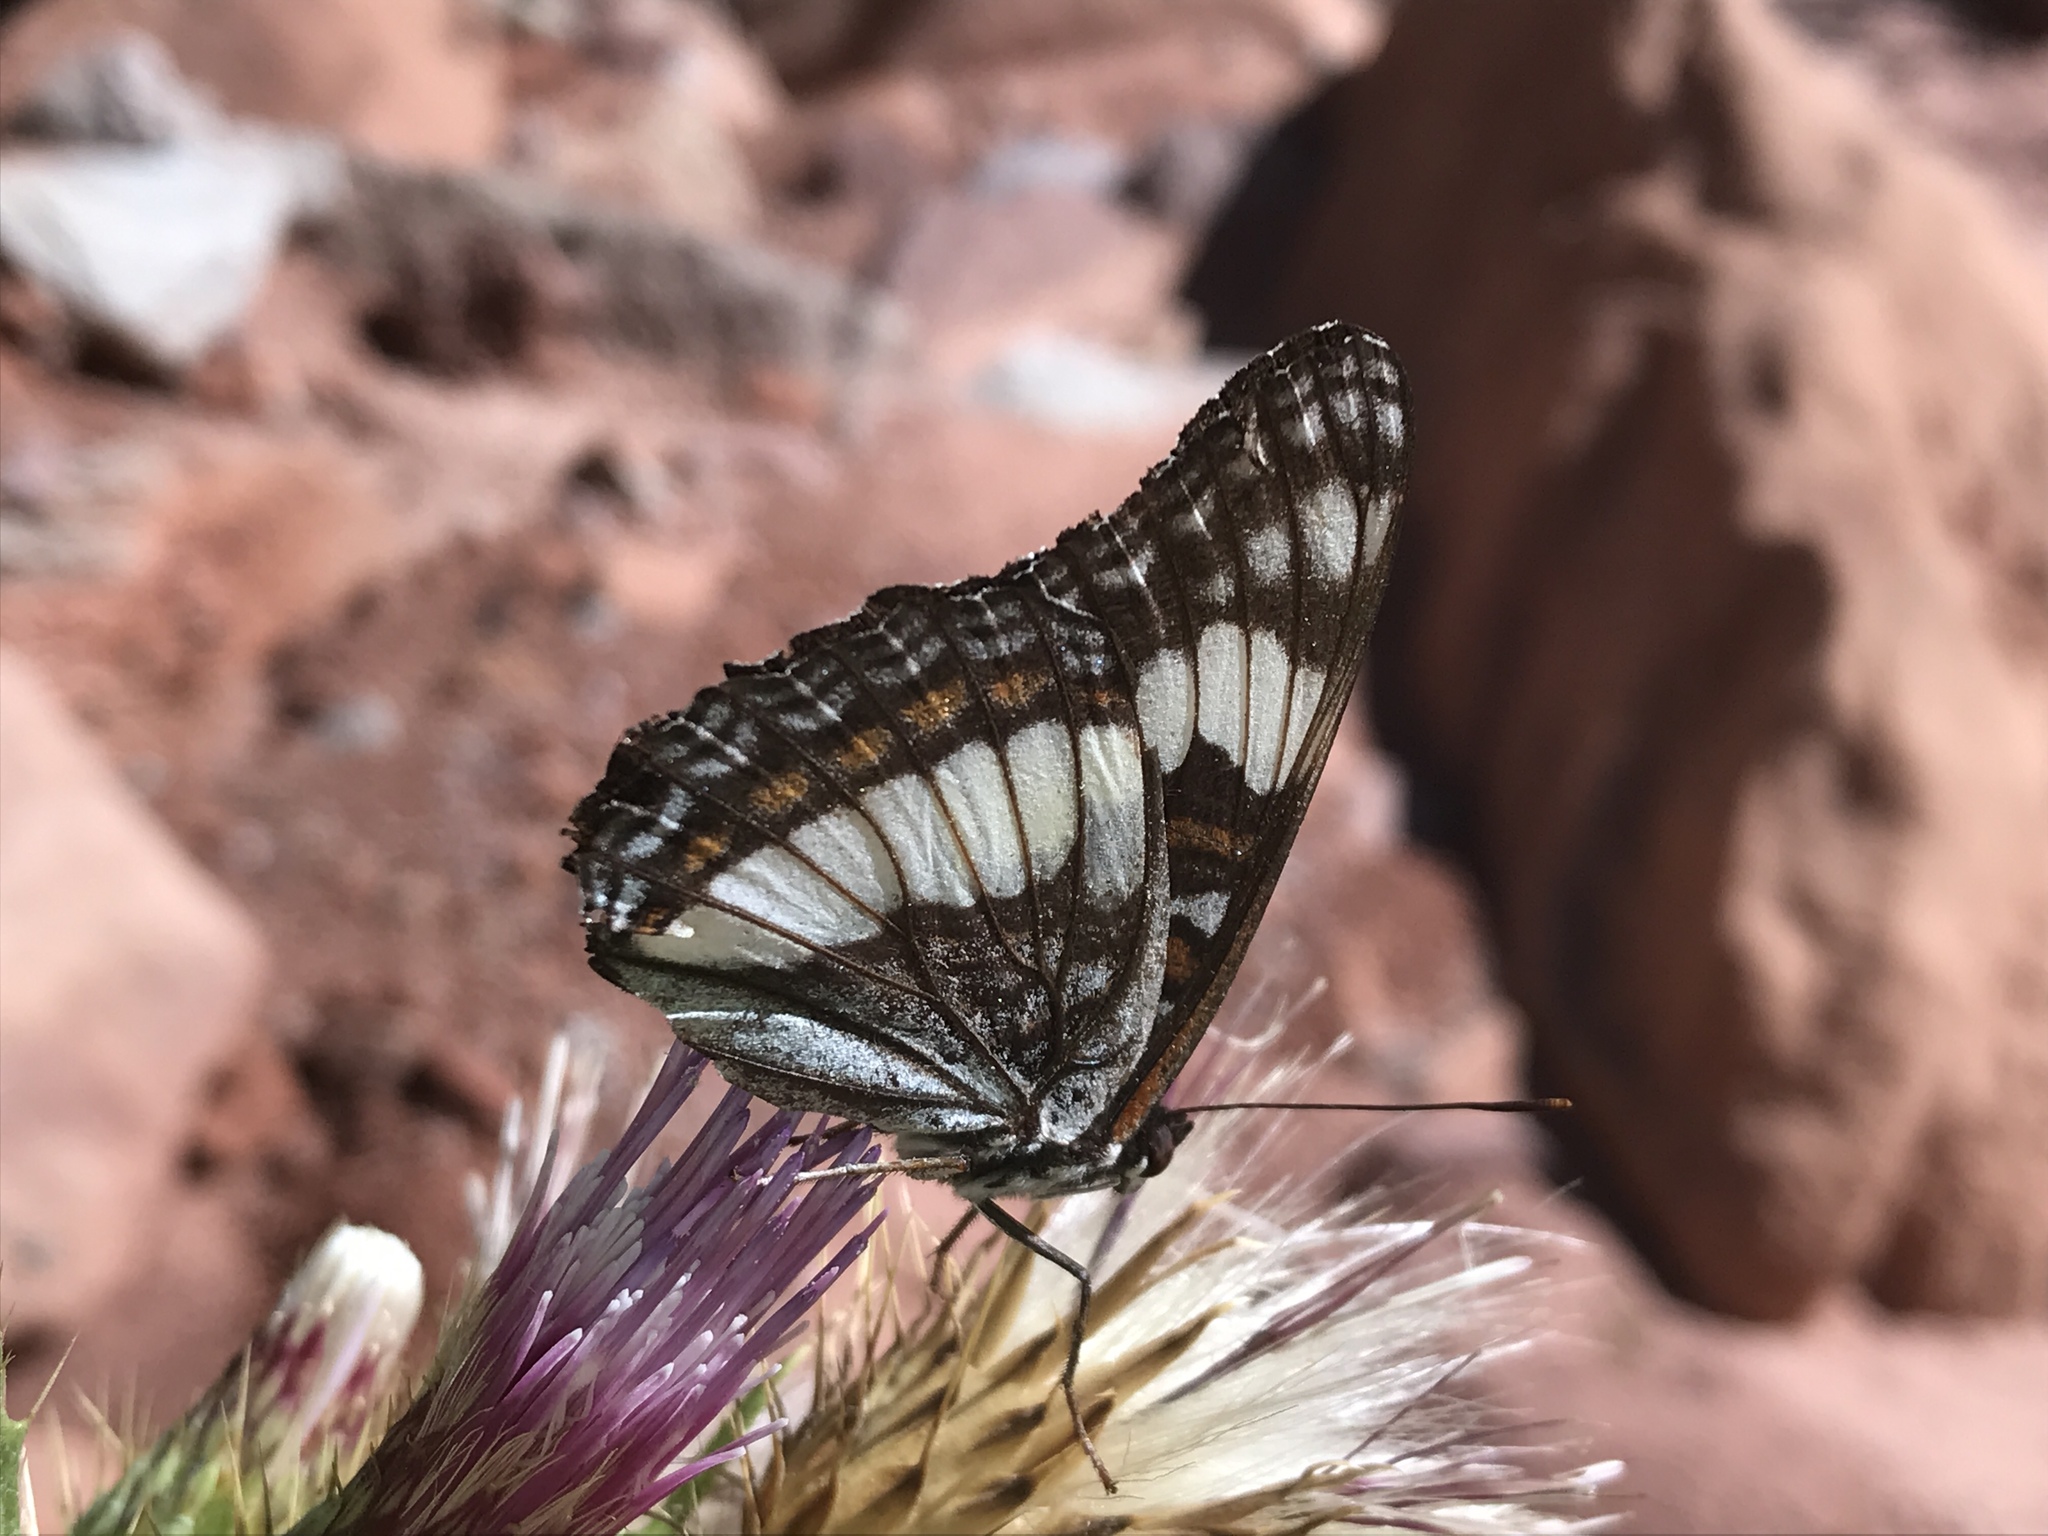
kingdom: Animalia
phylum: Arthropoda
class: Insecta
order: Lepidoptera
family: Nymphalidae
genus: Limenitis
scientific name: Limenitis weidemeyerii
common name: Weidemeyer's admiral
